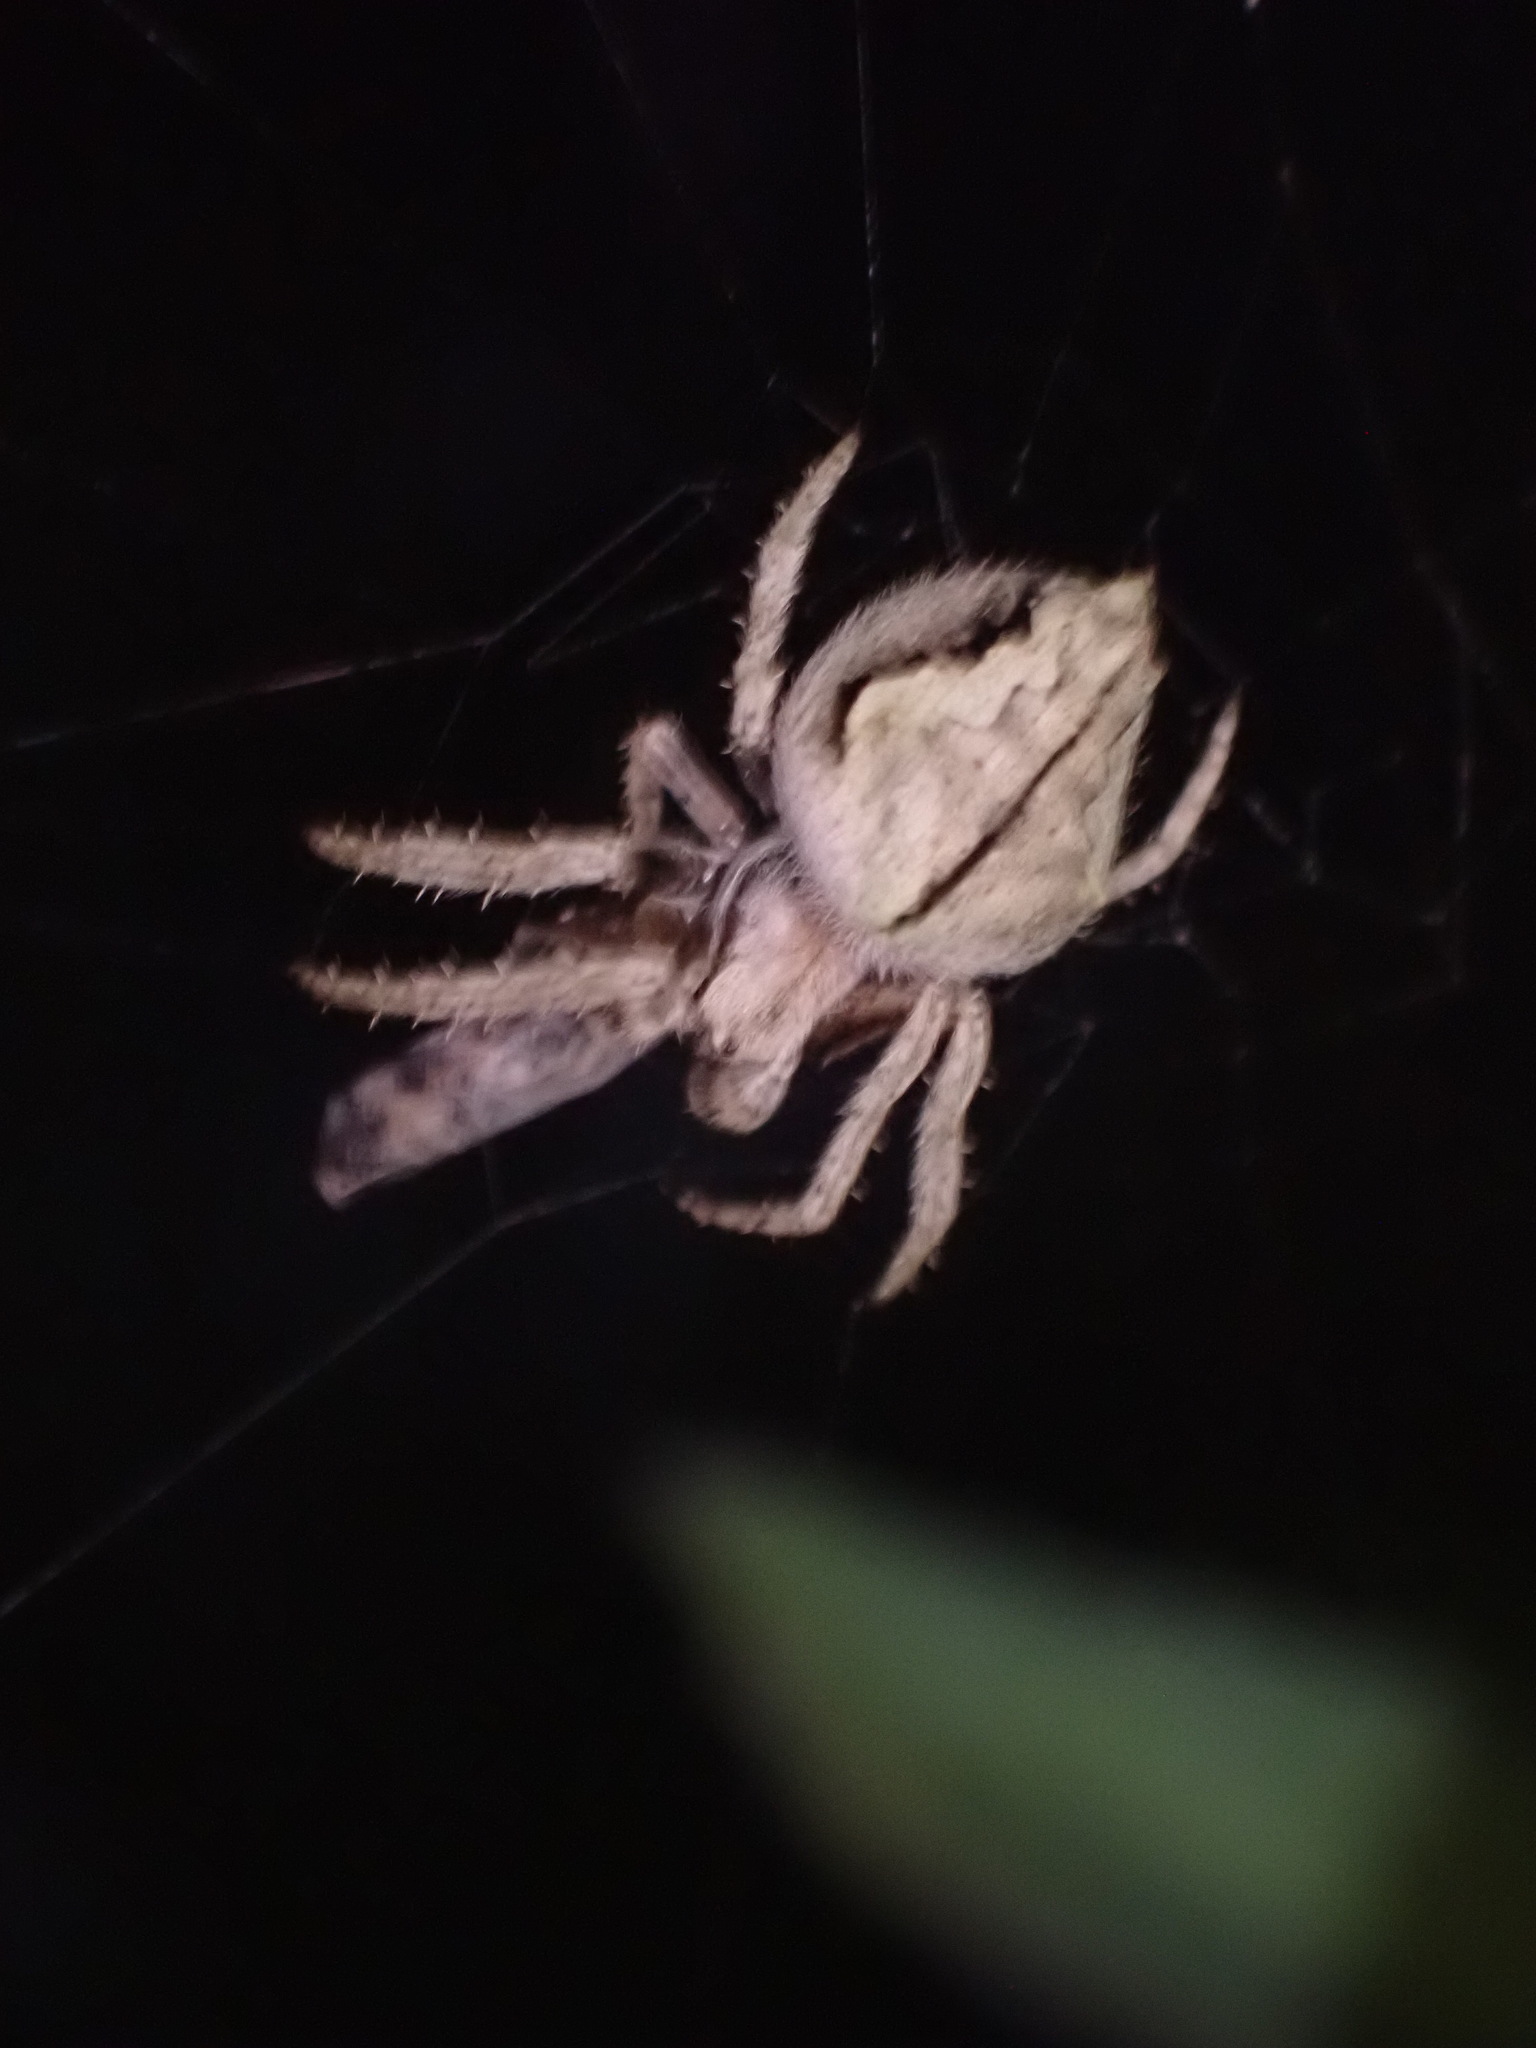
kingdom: Animalia
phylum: Arthropoda
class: Arachnida
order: Araneae
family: Araneidae
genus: Eriophora
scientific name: Eriophora pustulosa
